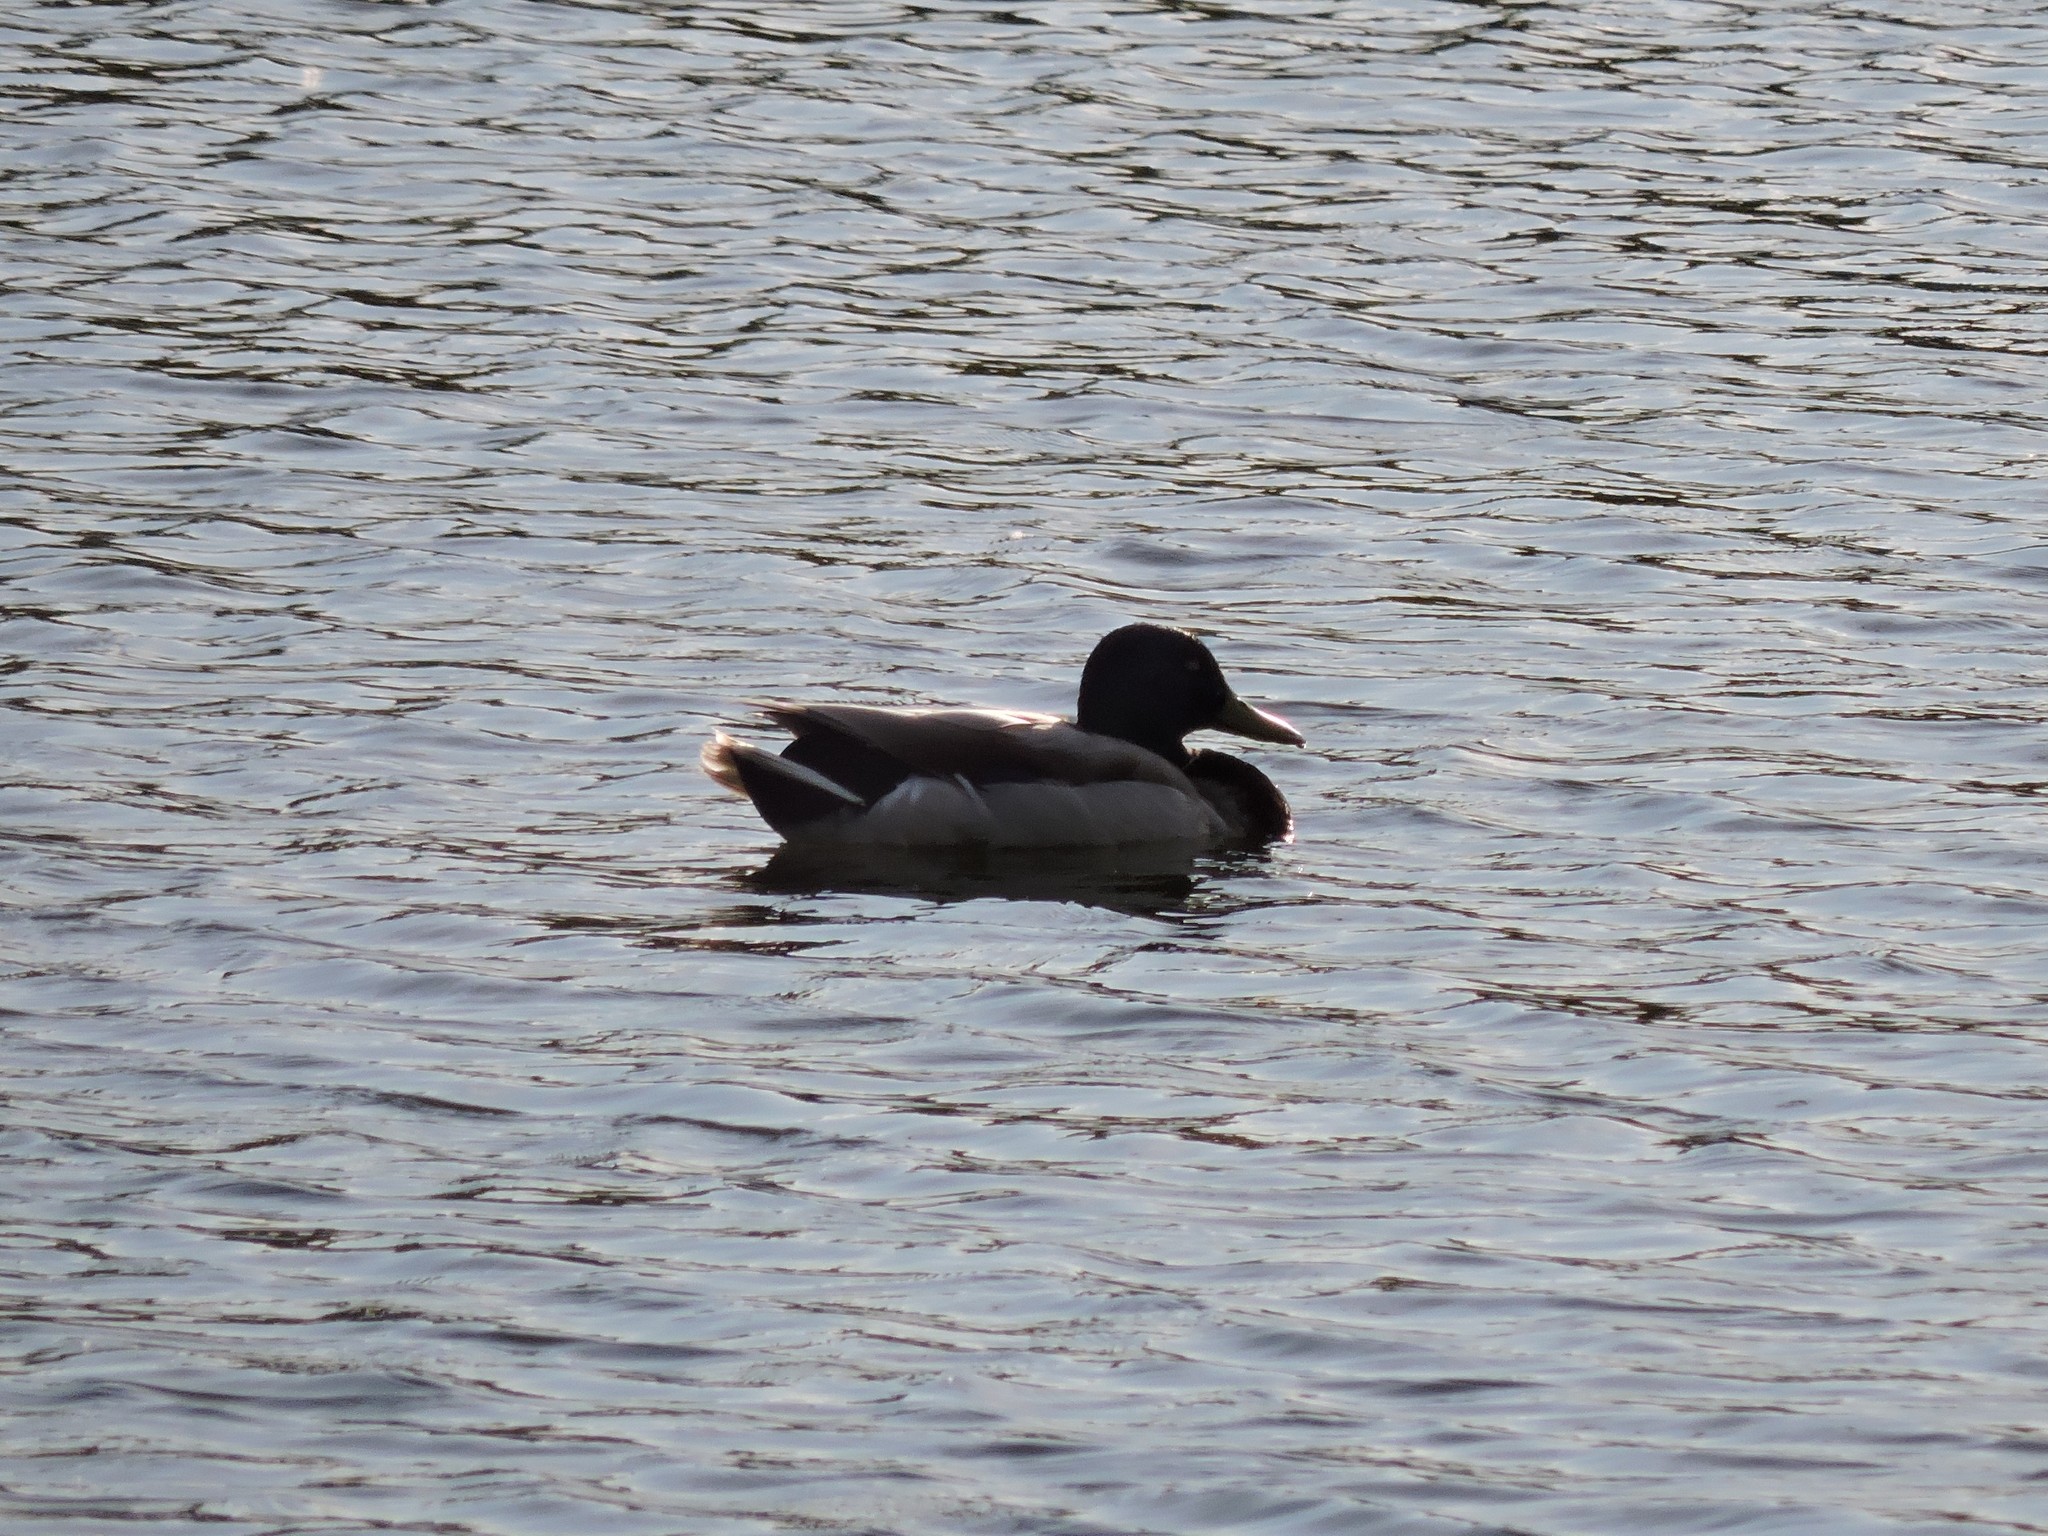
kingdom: Animalia
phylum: Chordata
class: Aves
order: Anseriformes
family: Anatidae
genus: Anas
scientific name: Anas platyrhynchos
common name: Mallard
